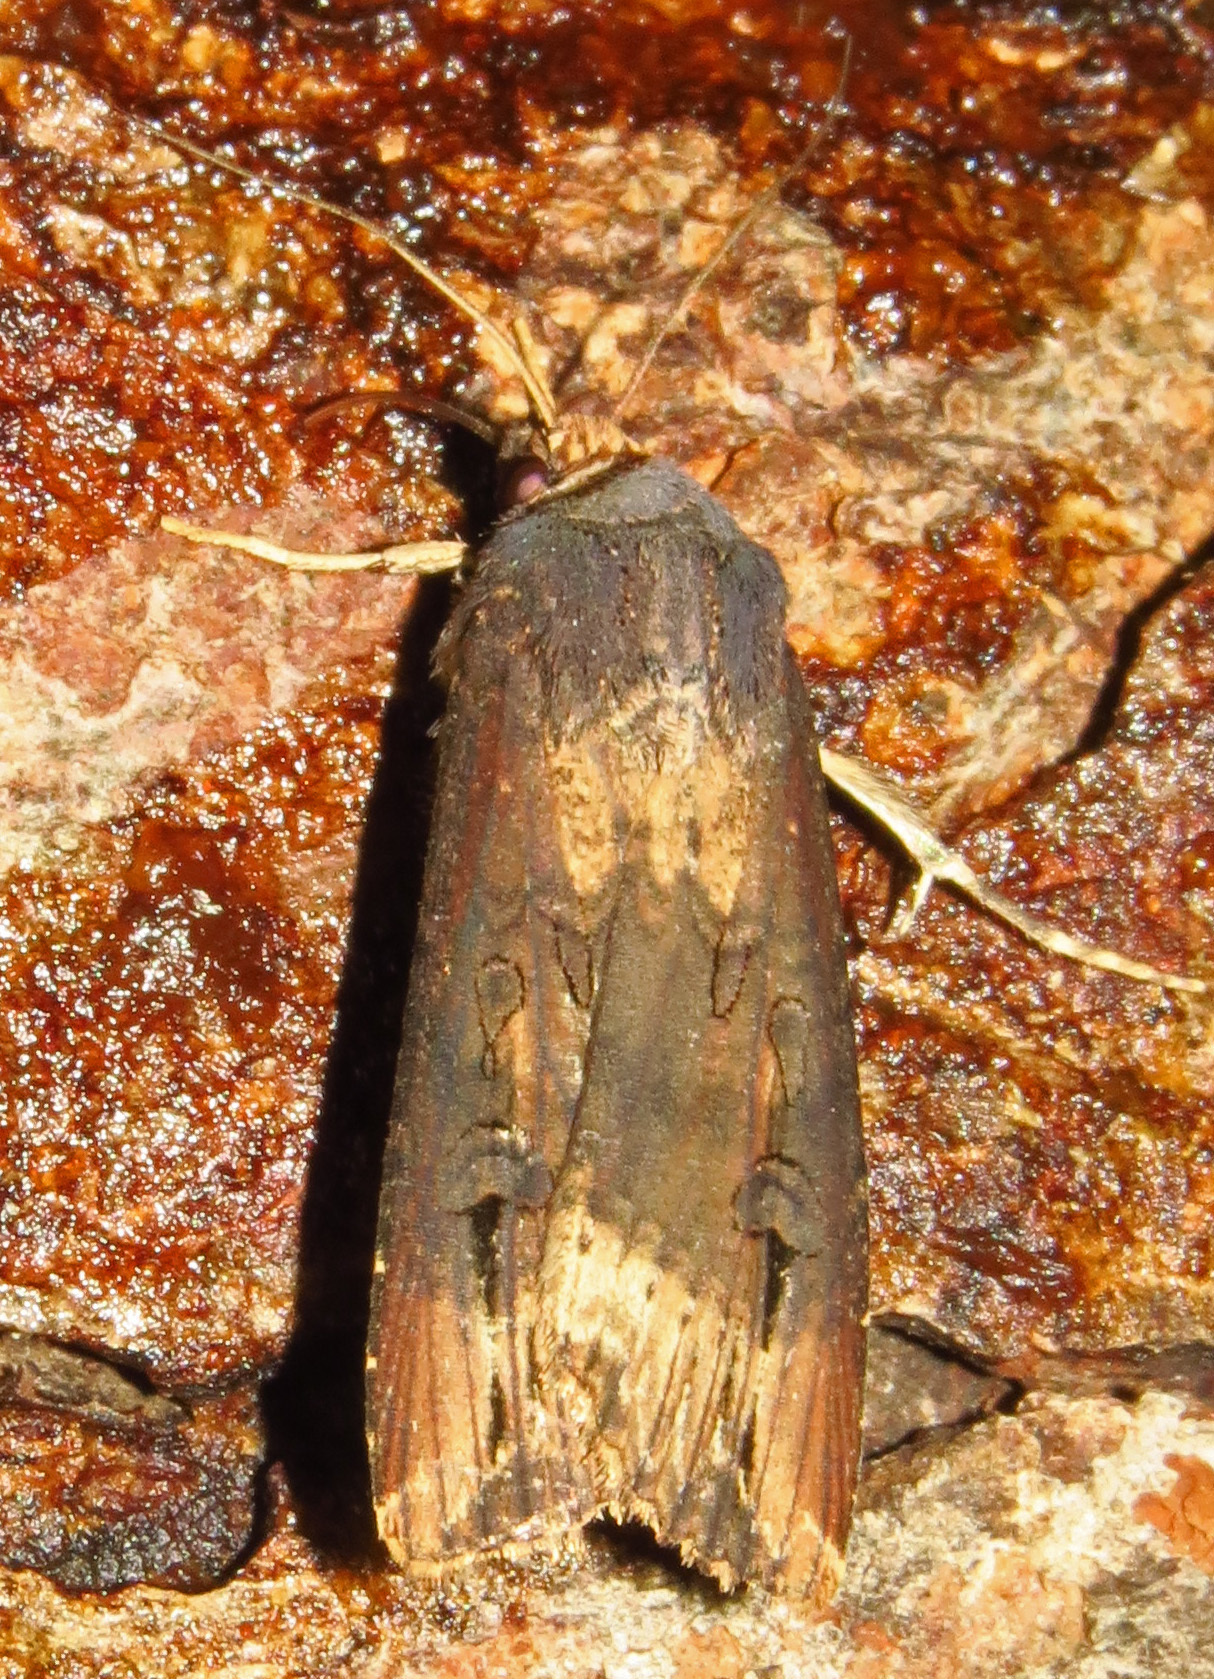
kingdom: Animalia
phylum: Arthropoda
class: Insecta
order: Lepidoptera
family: Noctuidae
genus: Agrotis
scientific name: Agrotis ipsilon
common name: Dark sword-grass
